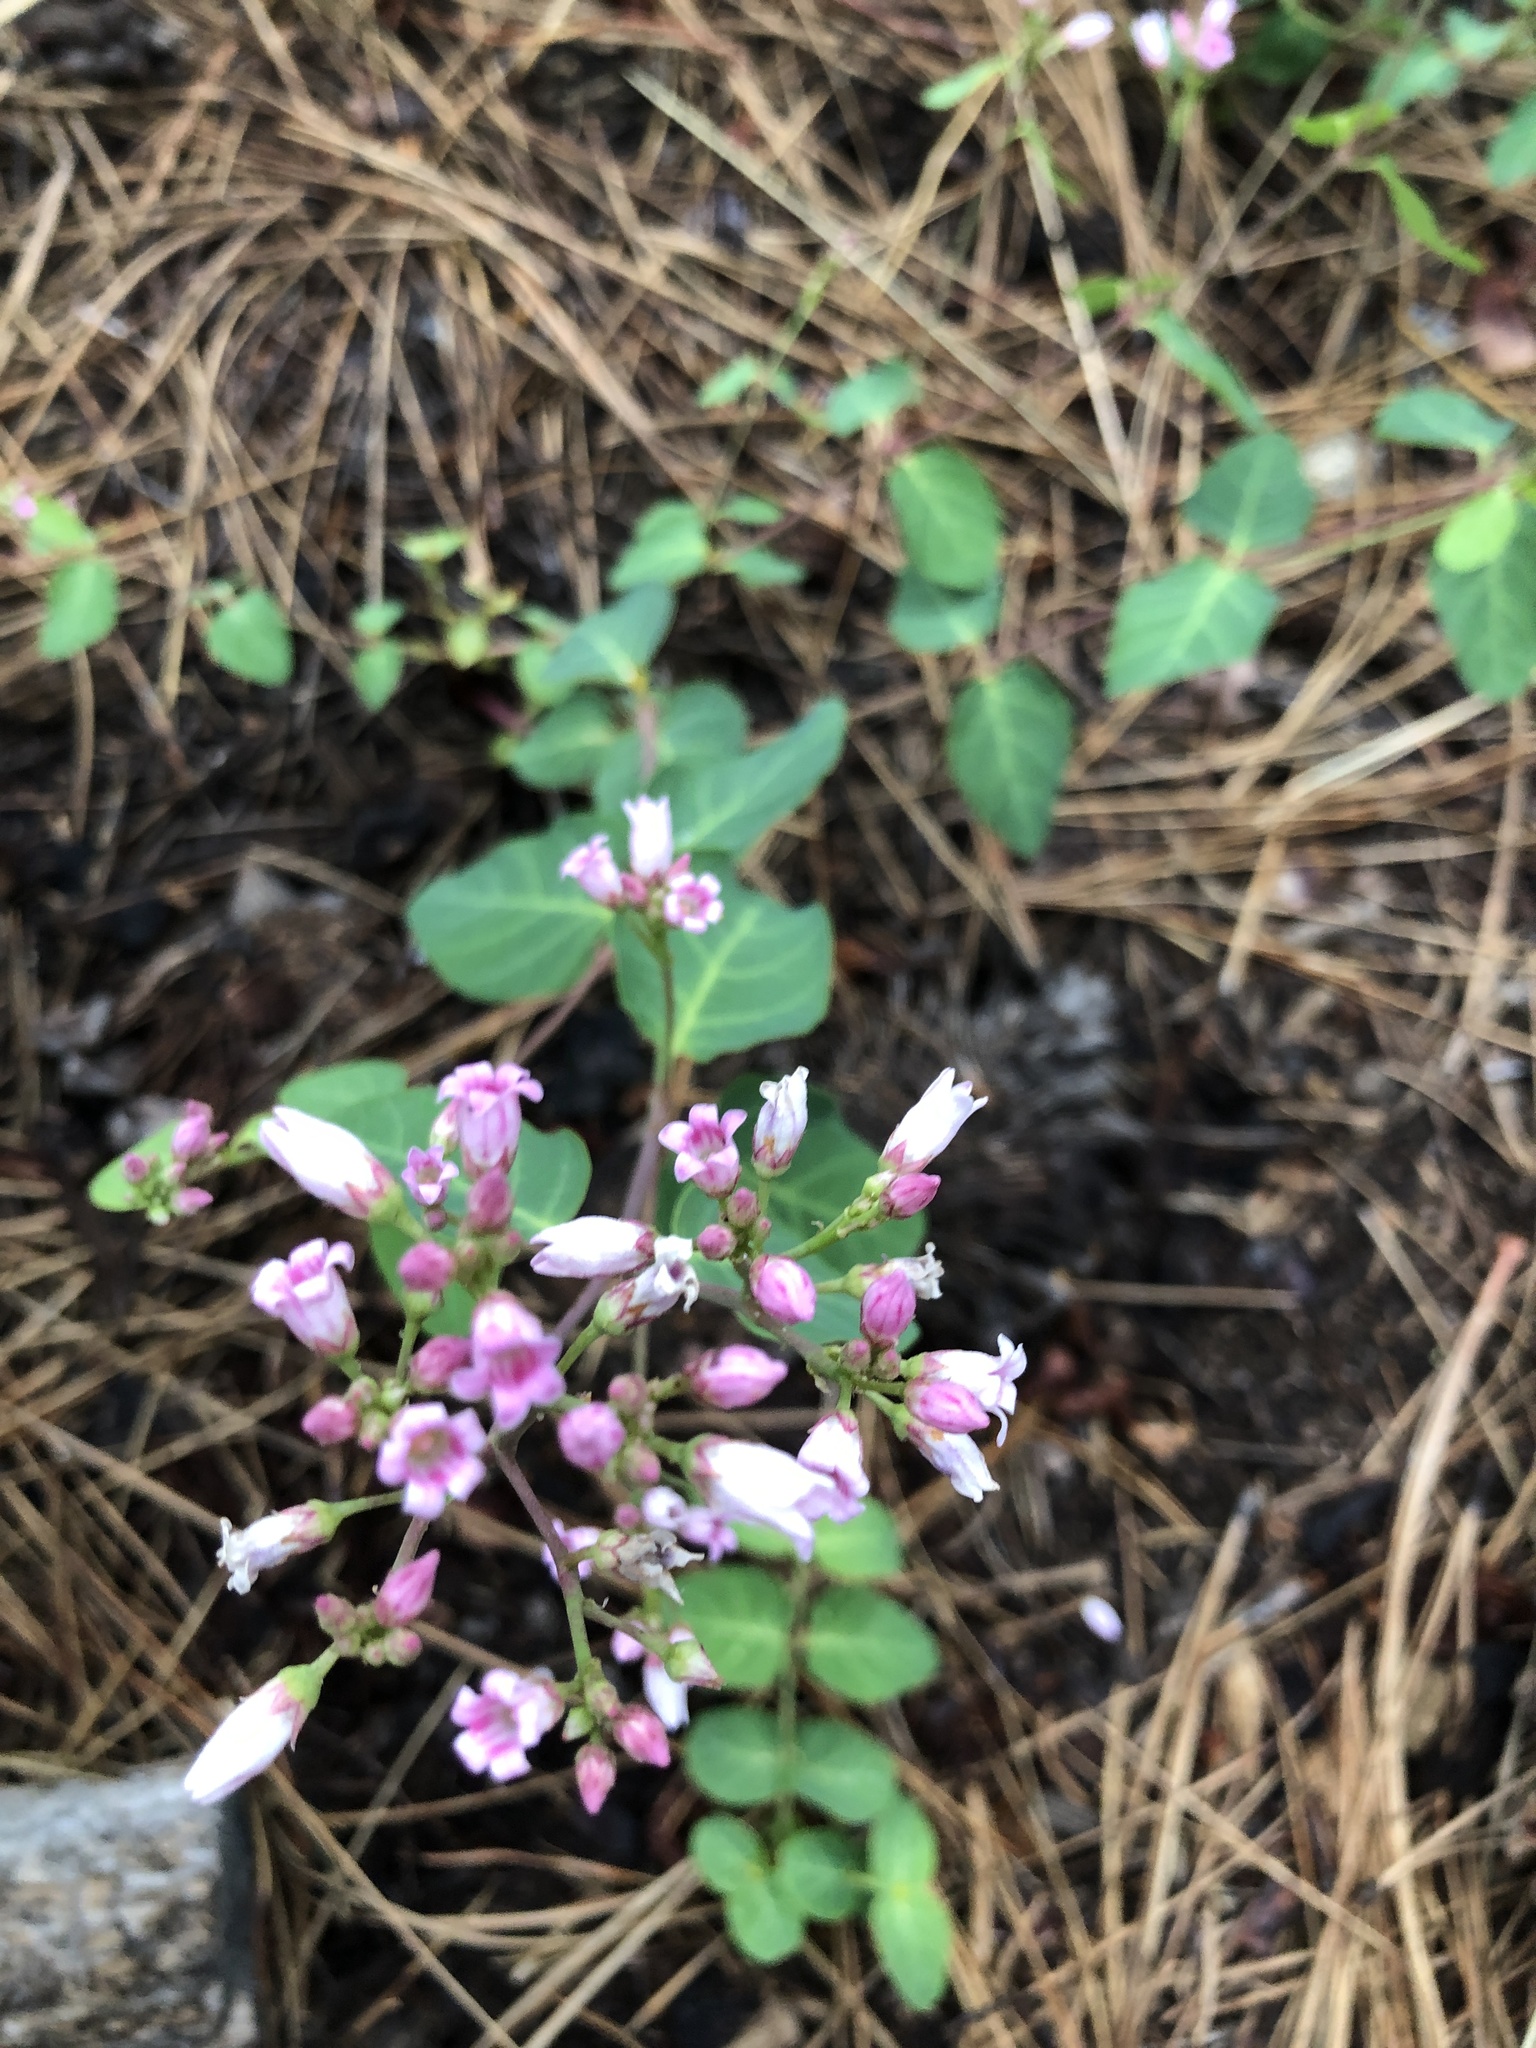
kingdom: Plantae
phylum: Tracheophyta
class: Magnoliopsida
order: Gentianales
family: Apocynaceae
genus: Apocynum
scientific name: Apocynum androsaemifolium
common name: Spreading dogbane
